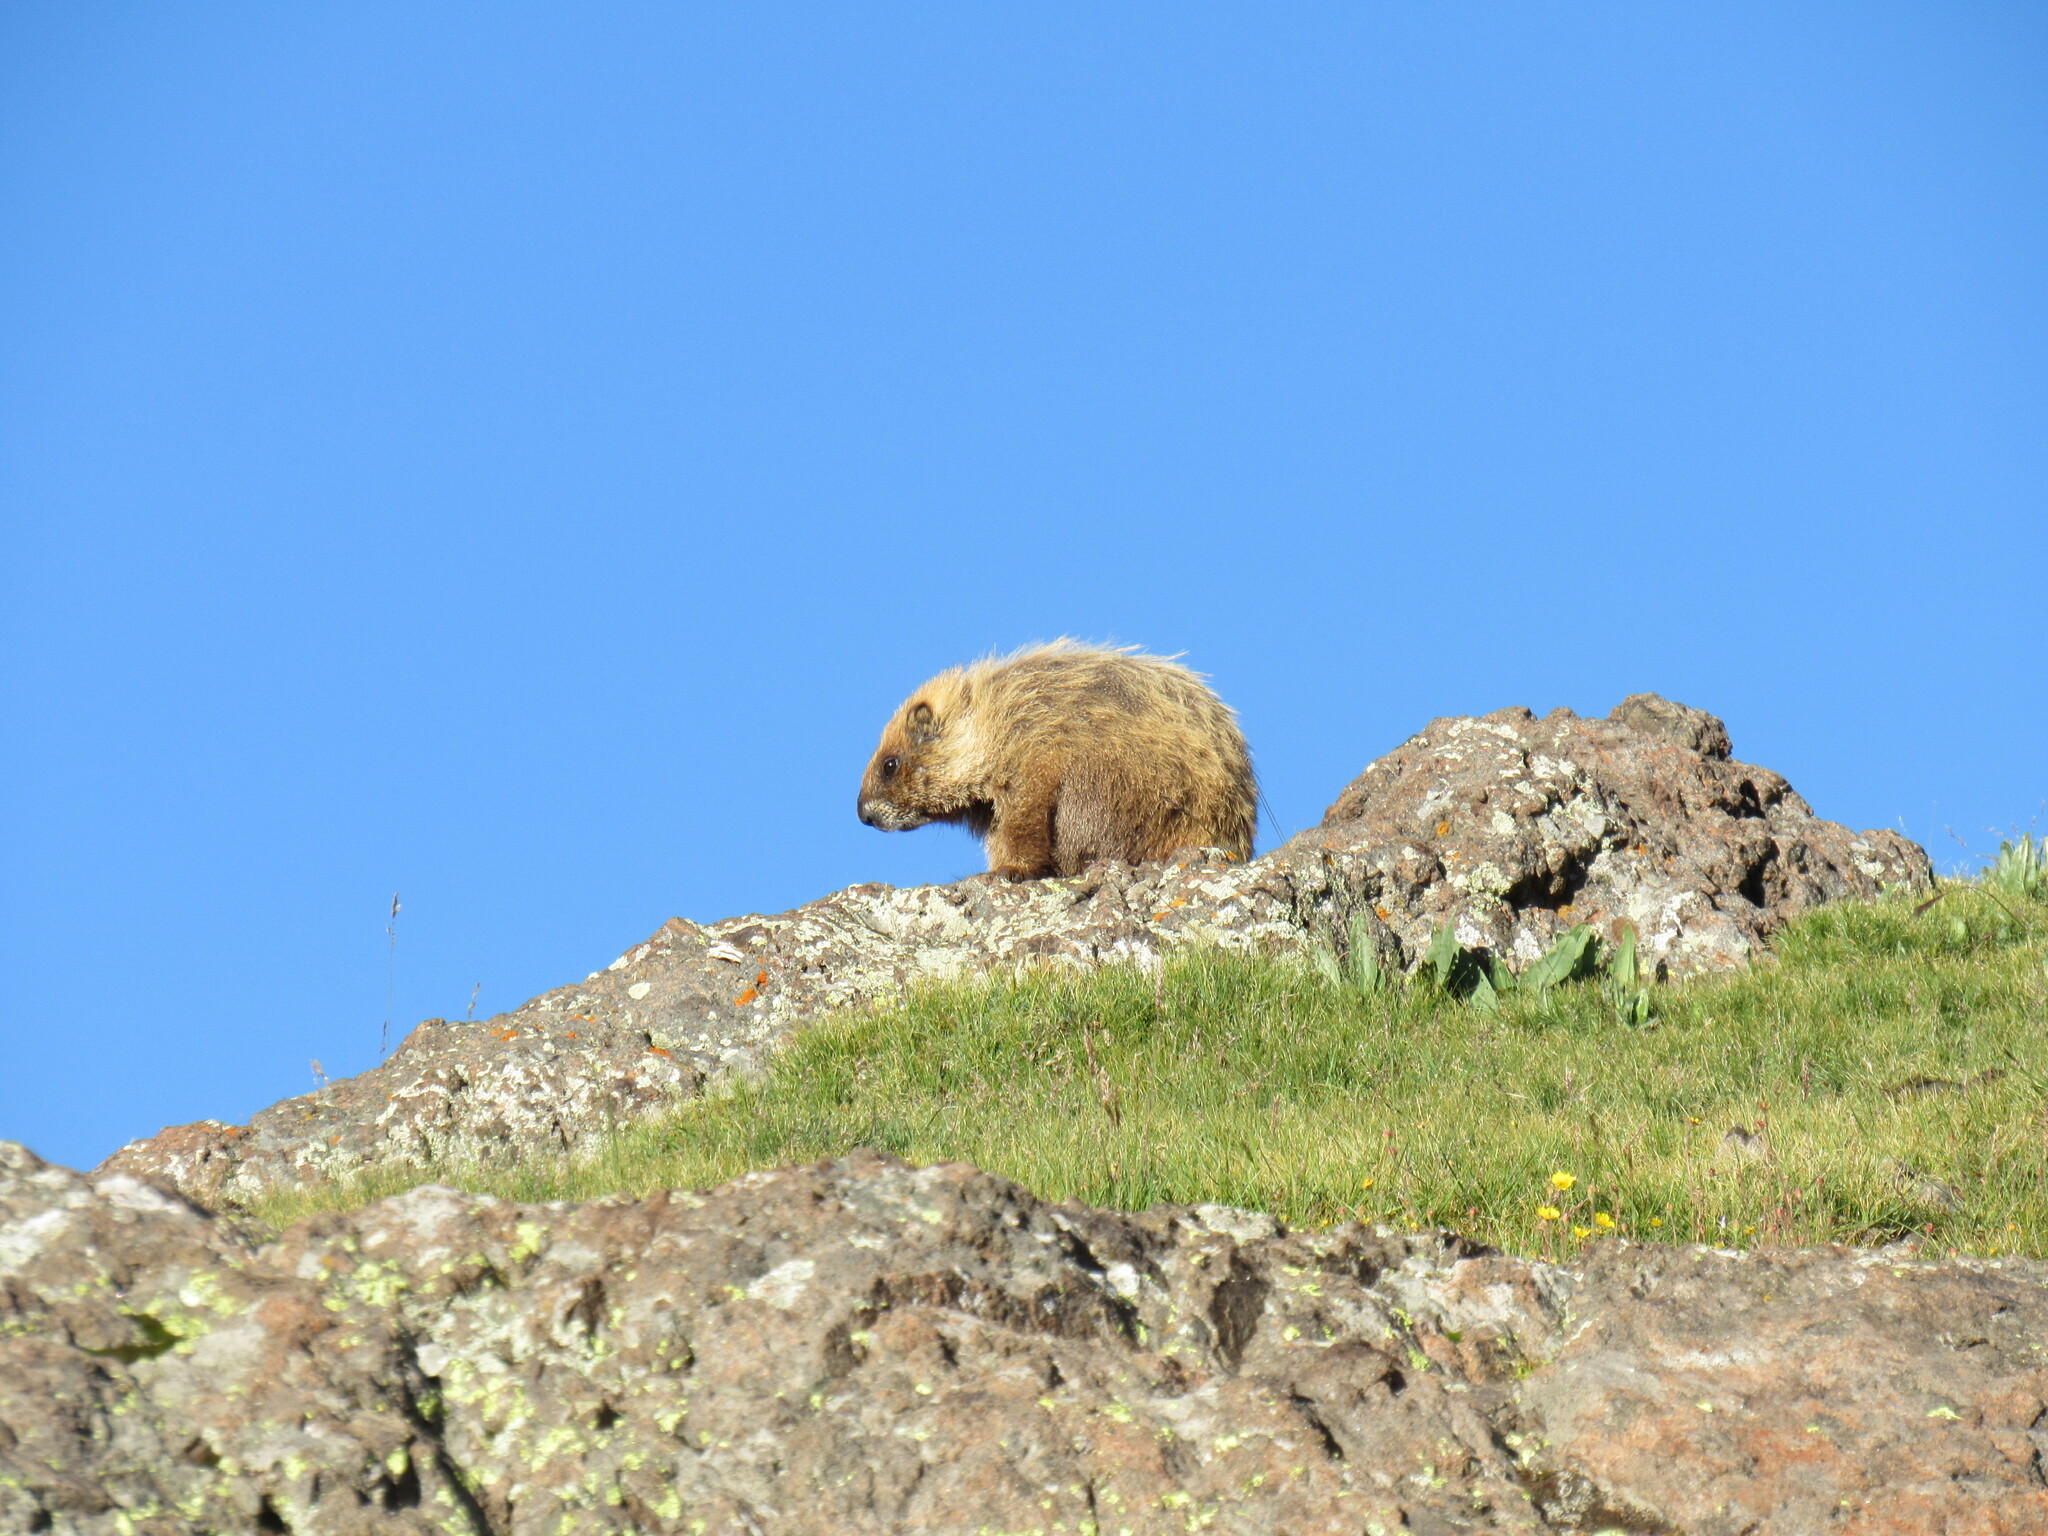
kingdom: Animalia
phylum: Chordata
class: Mammalia
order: Rodentia
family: Sciuridae
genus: Marmota
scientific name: Marmota flaviventris
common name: Yellow-bellied marmot
